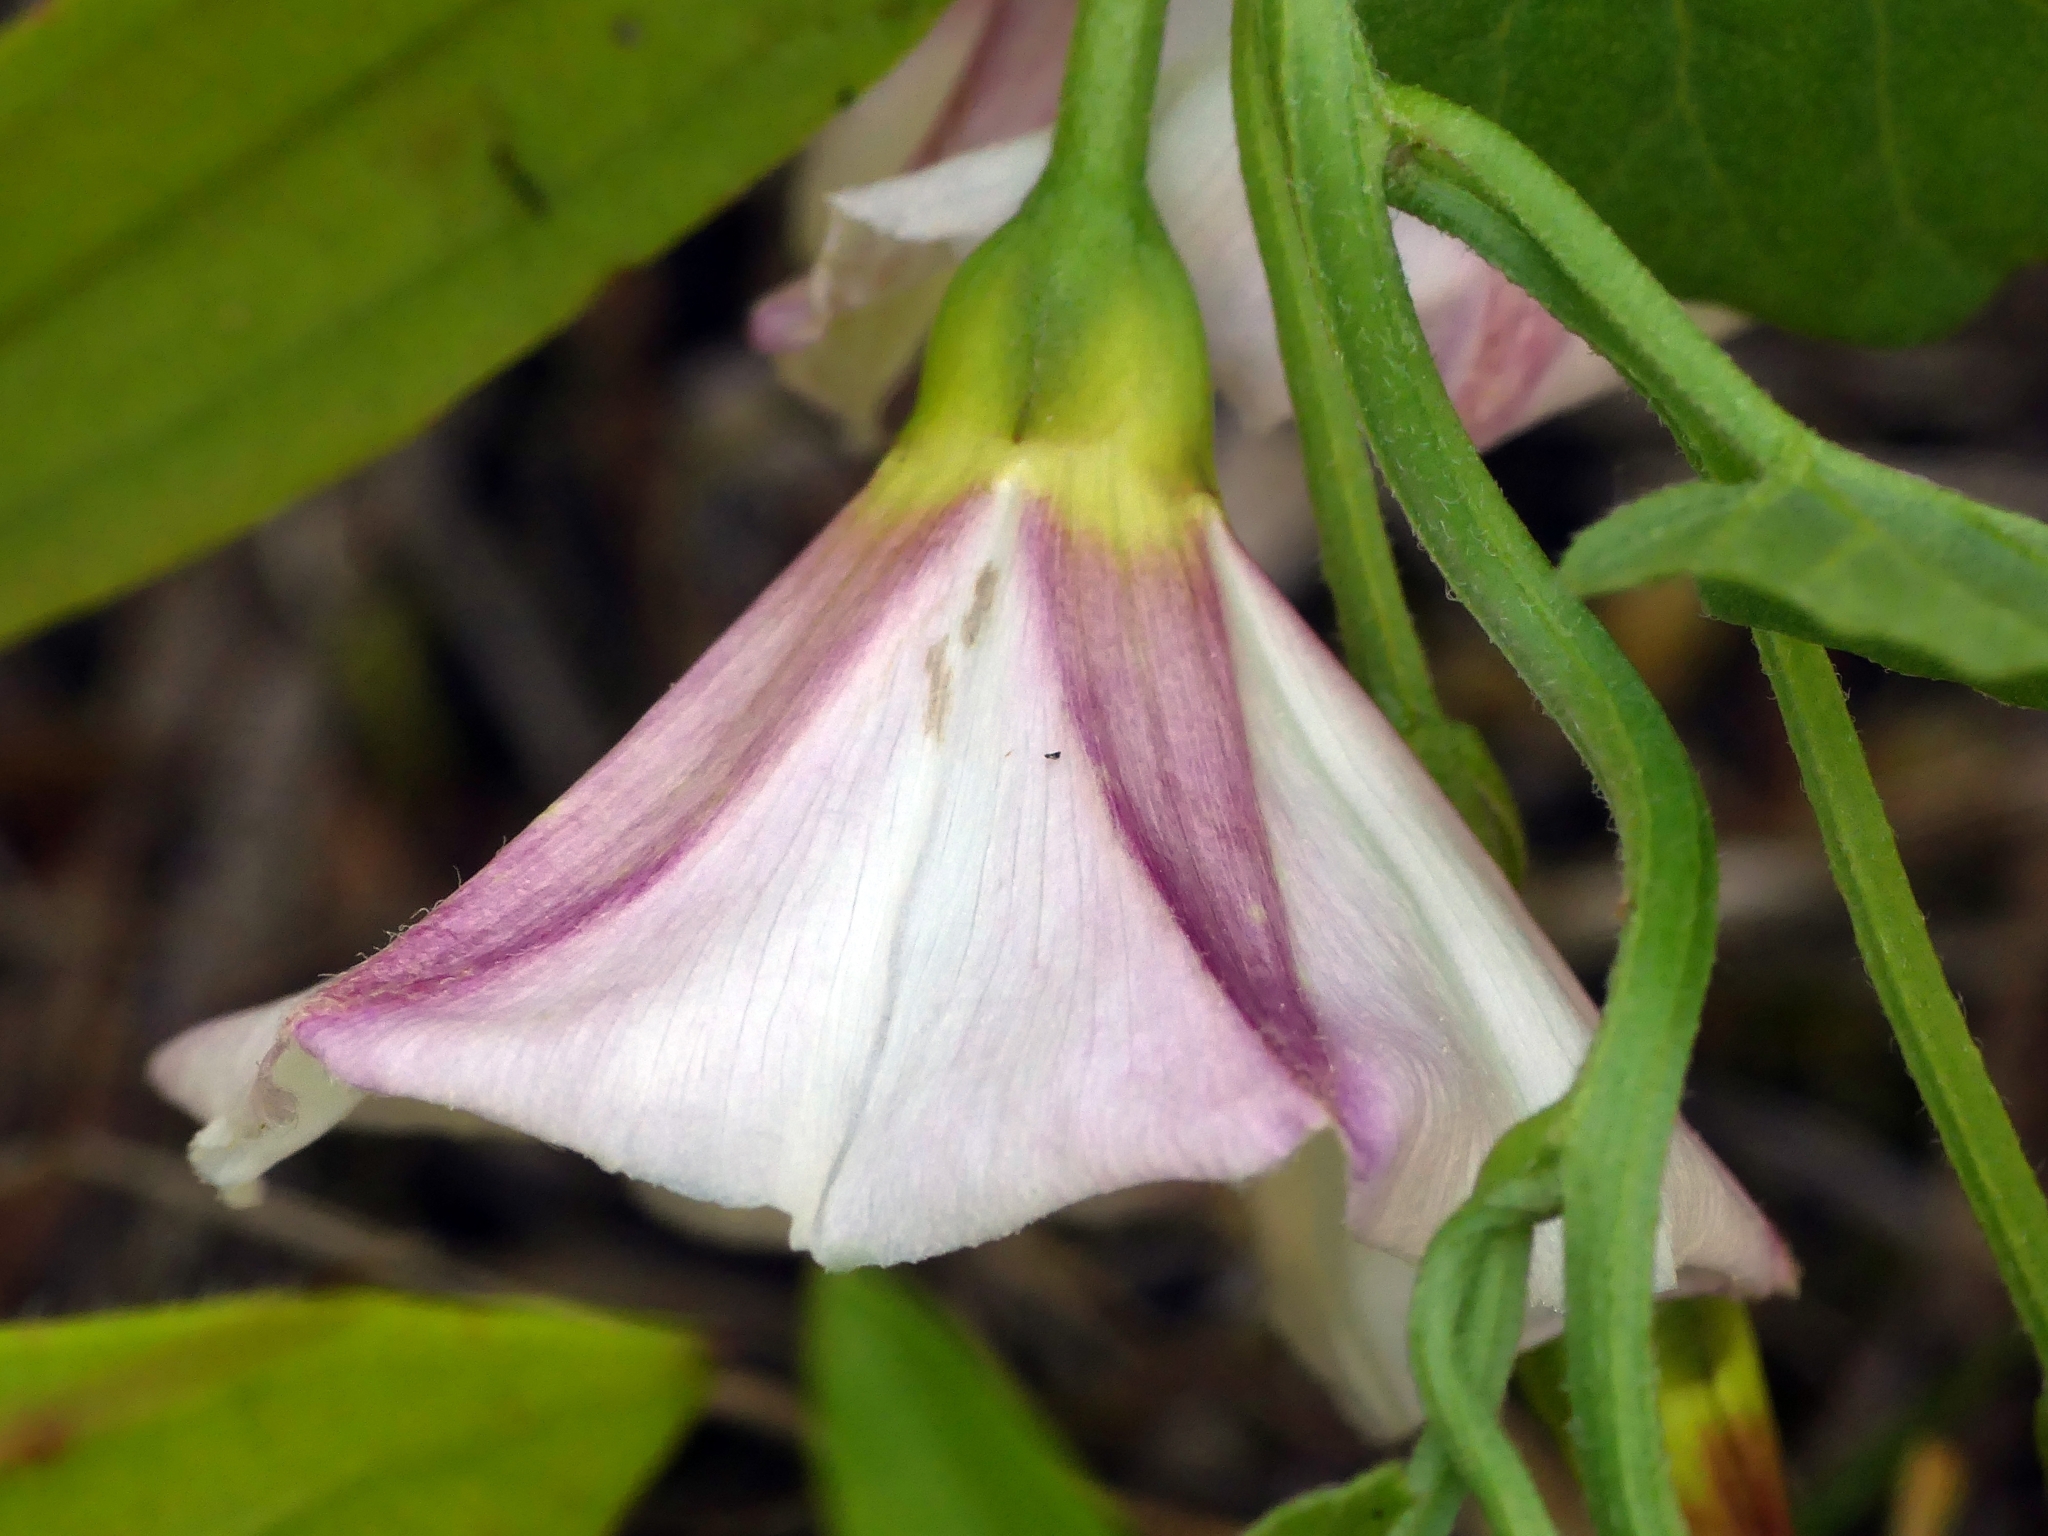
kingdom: Plantae
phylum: Tracheophyta
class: Magnoliopsida
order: Solanales
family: Convolvulaceae
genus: Convolvulus
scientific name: Convolvulus arvensis
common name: Field bindweed
